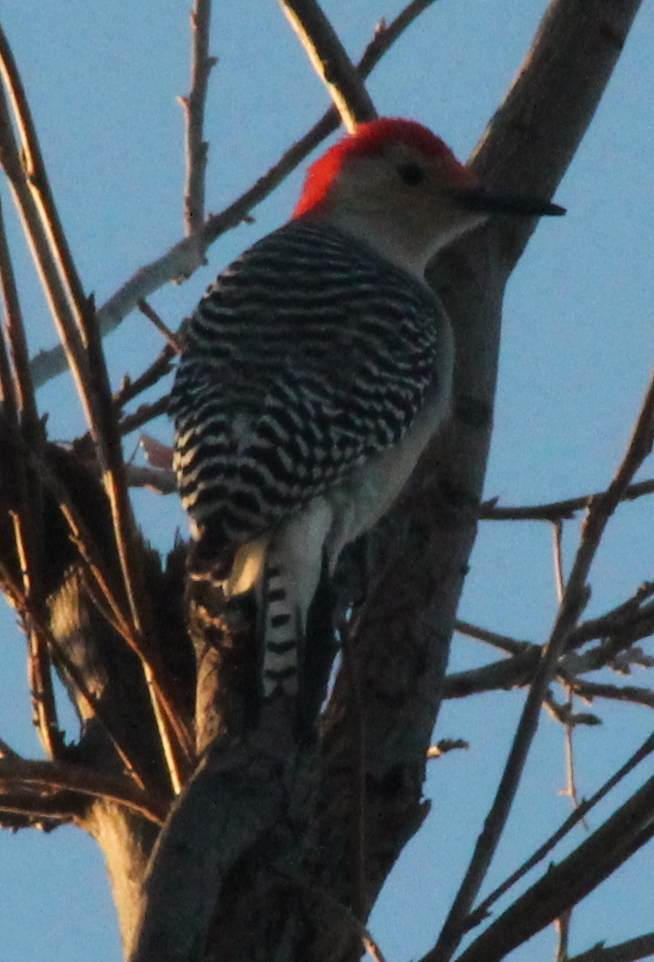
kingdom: Animalia
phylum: Chordata
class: Aves
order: Piciformes
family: Picidae
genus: Melanerpes
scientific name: Melanerpes carolinus
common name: Red-bellied woodpecker
